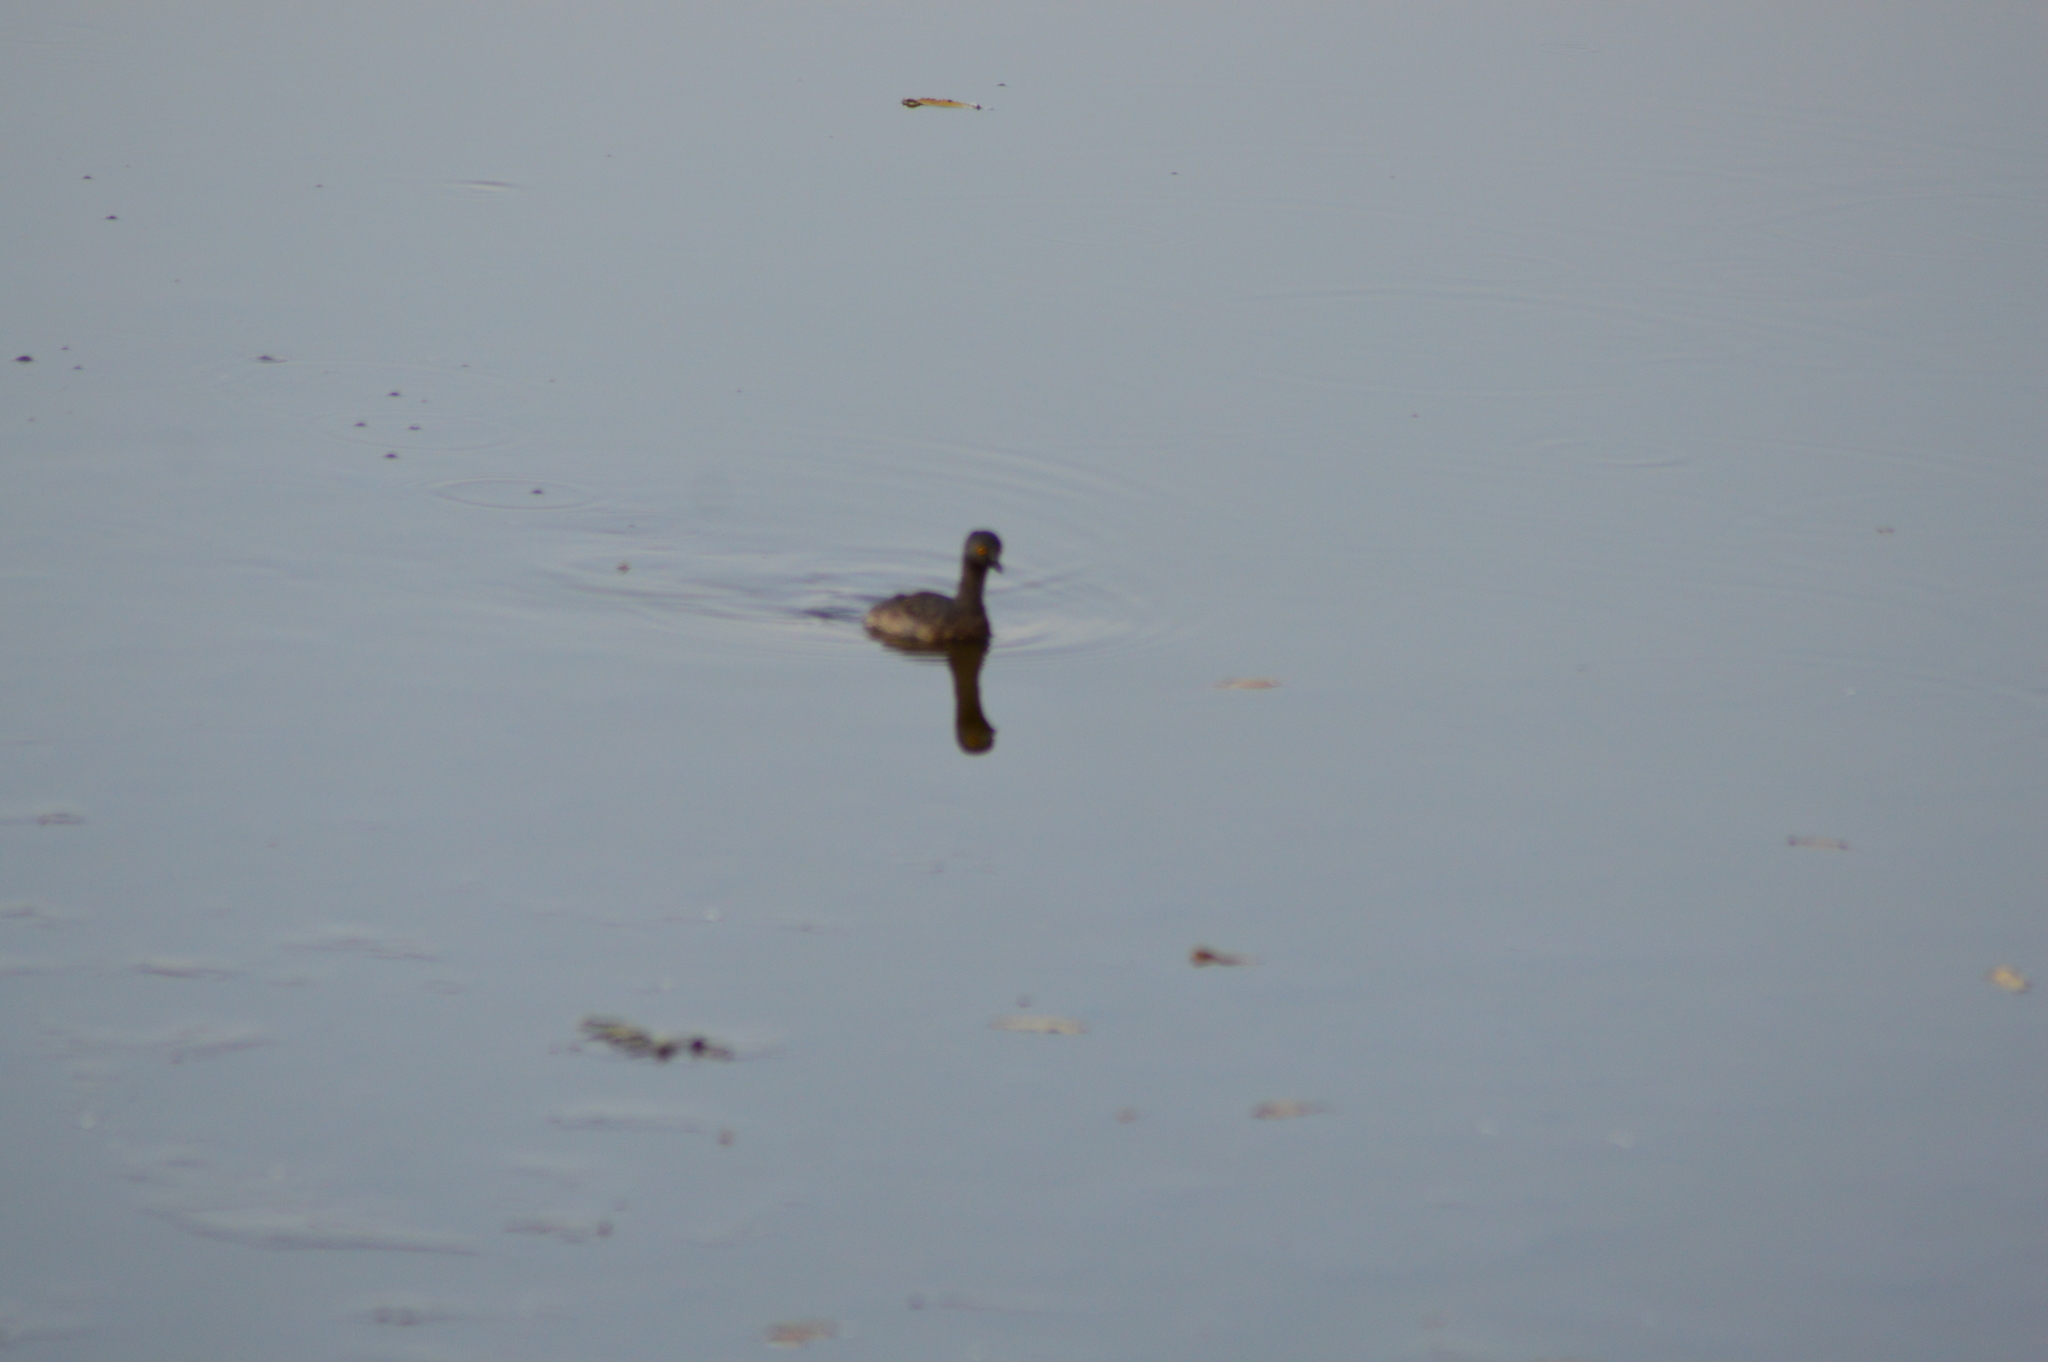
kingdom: Animalia
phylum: Chordata
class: Aves
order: Podicipediformes
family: Podicipedidae
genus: Tachybaptus
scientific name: Tachybaptus dominicus
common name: Least grebe
